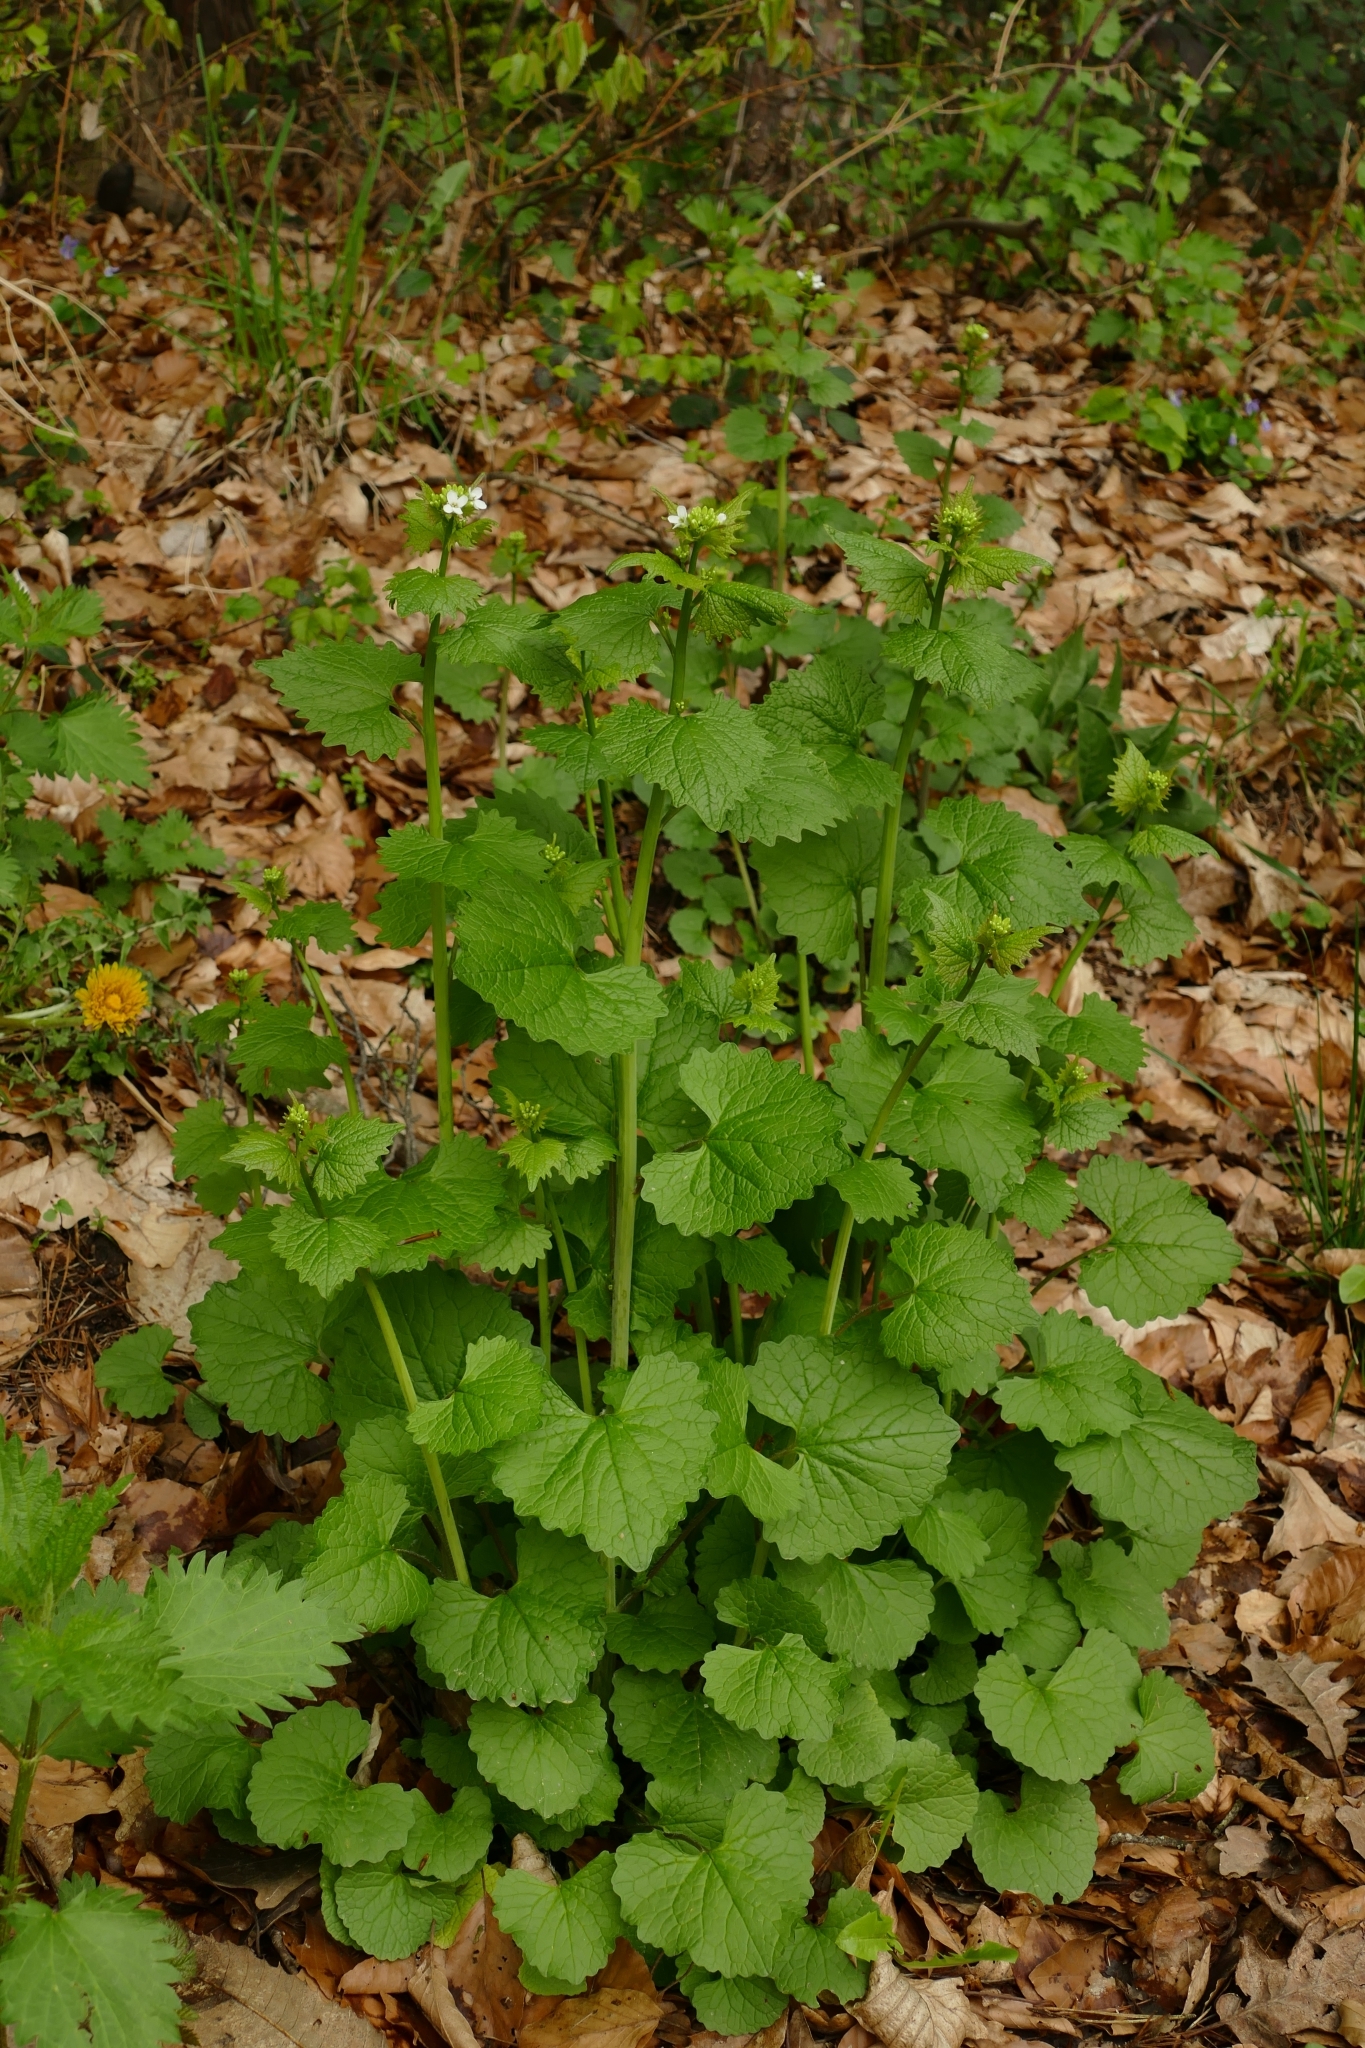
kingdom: Plantae
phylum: Tracheophyta
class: Magnoliopsida
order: Brassicales
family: Brassicaceae
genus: Alliaria
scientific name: Alliaria petiolata
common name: Garlic mustard
